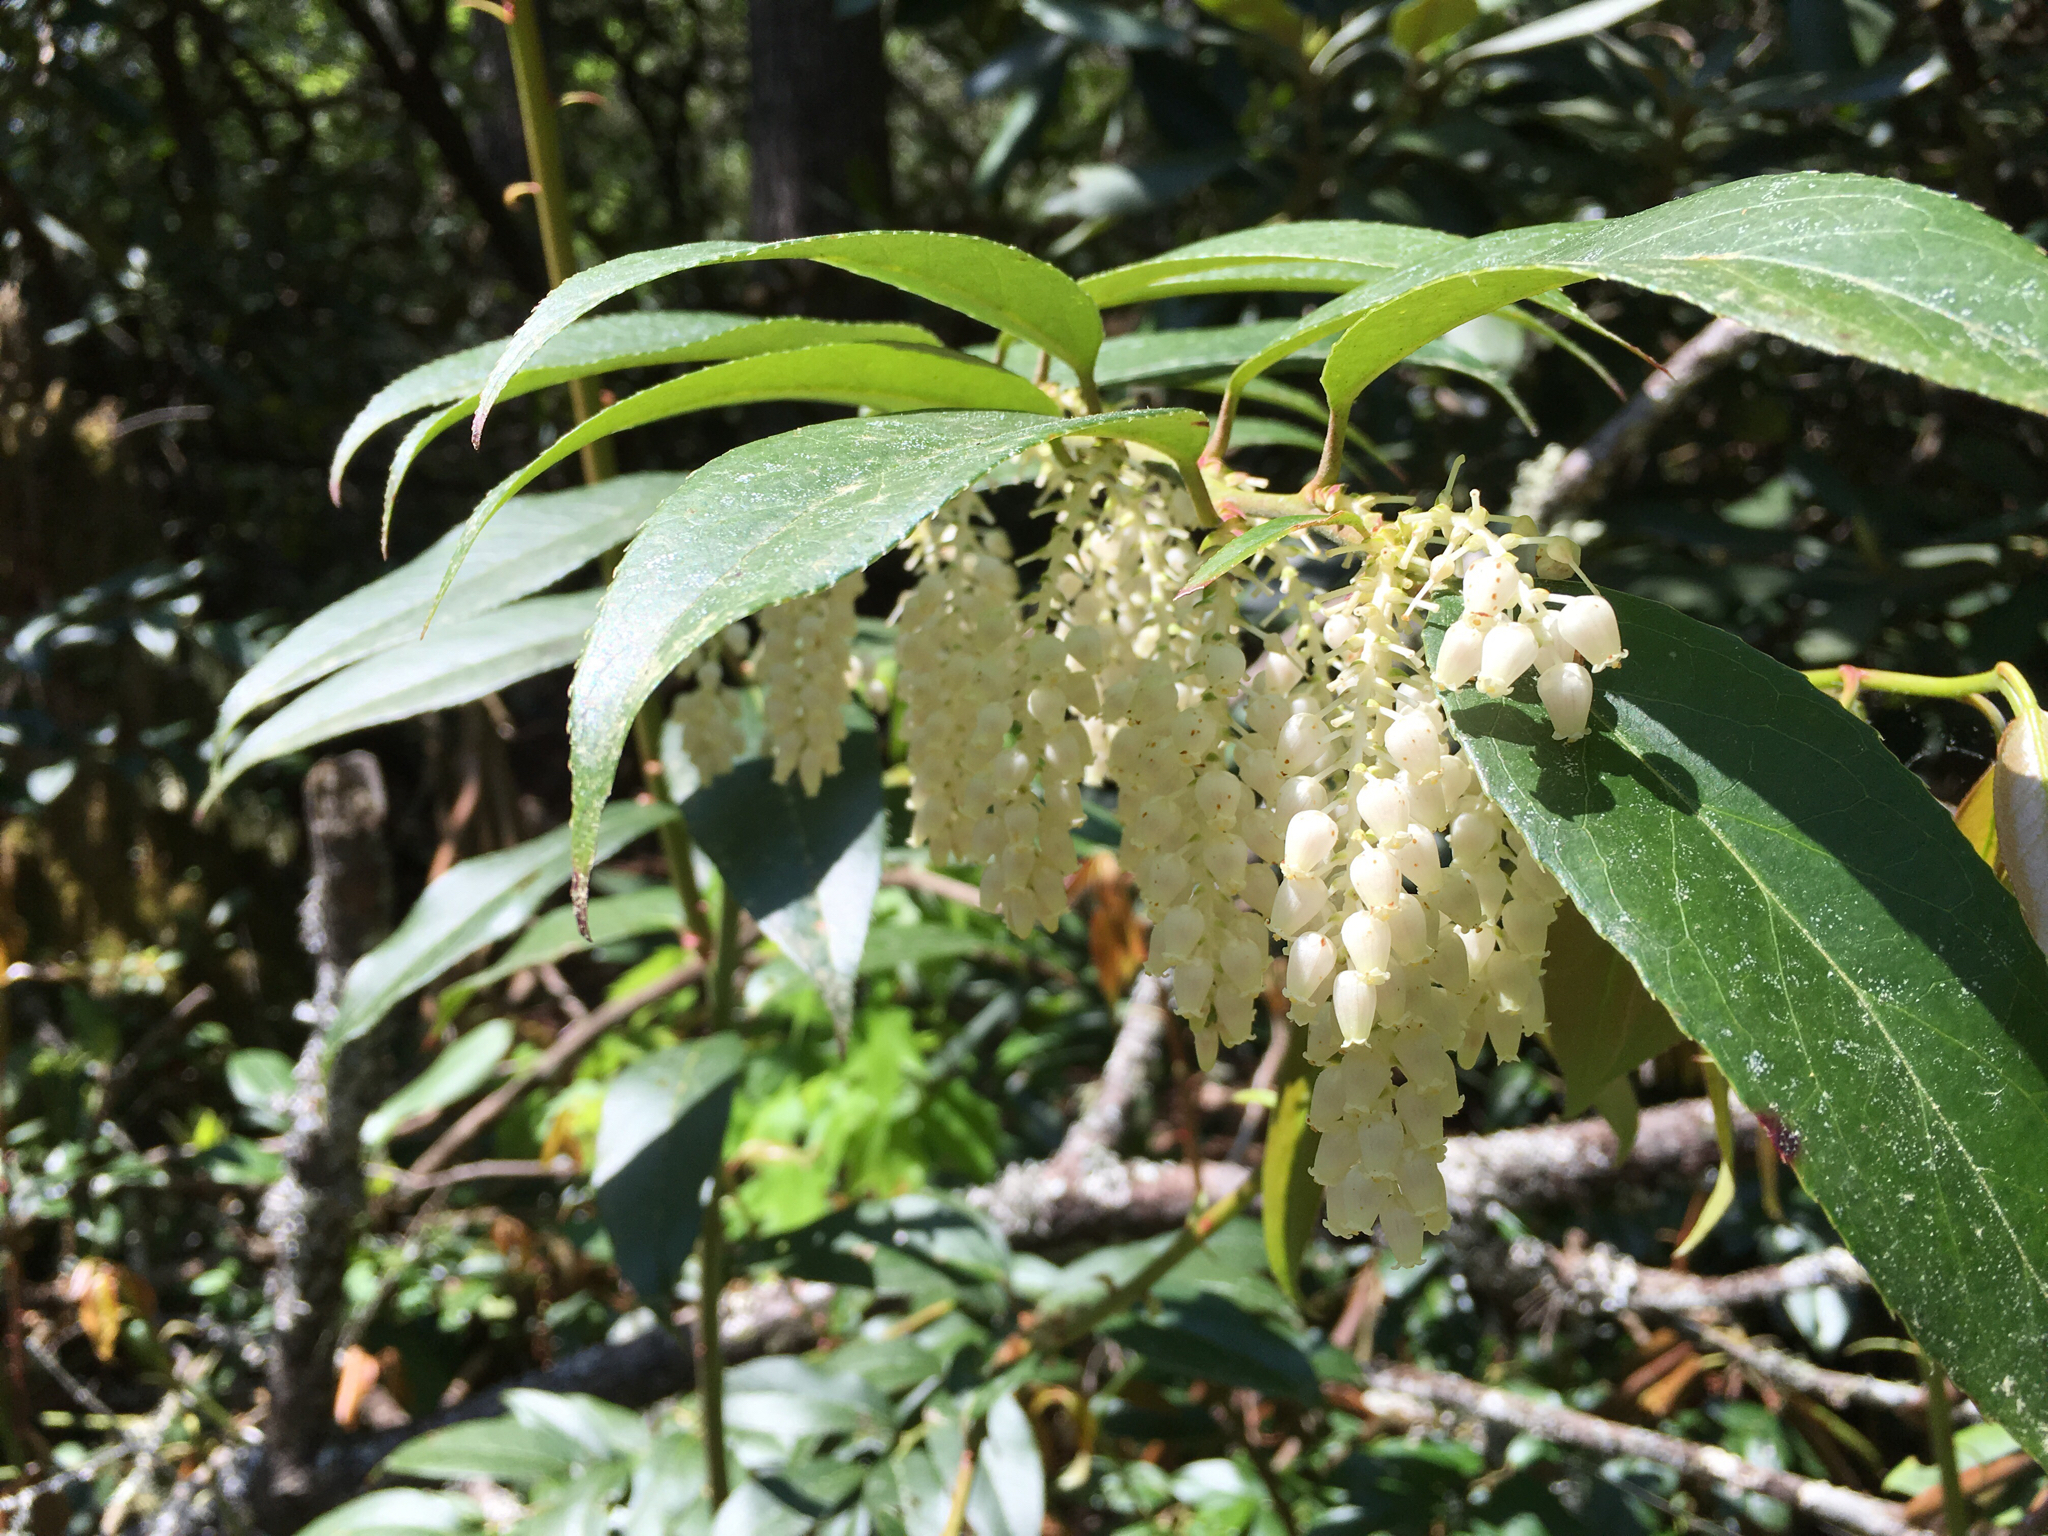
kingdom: Plantae
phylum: Tracheophyta
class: Magnoliopsida
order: Ericales
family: Ericaceae
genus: Leucothoe
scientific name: Leucothoe fontanesiana
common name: Fetterbush
